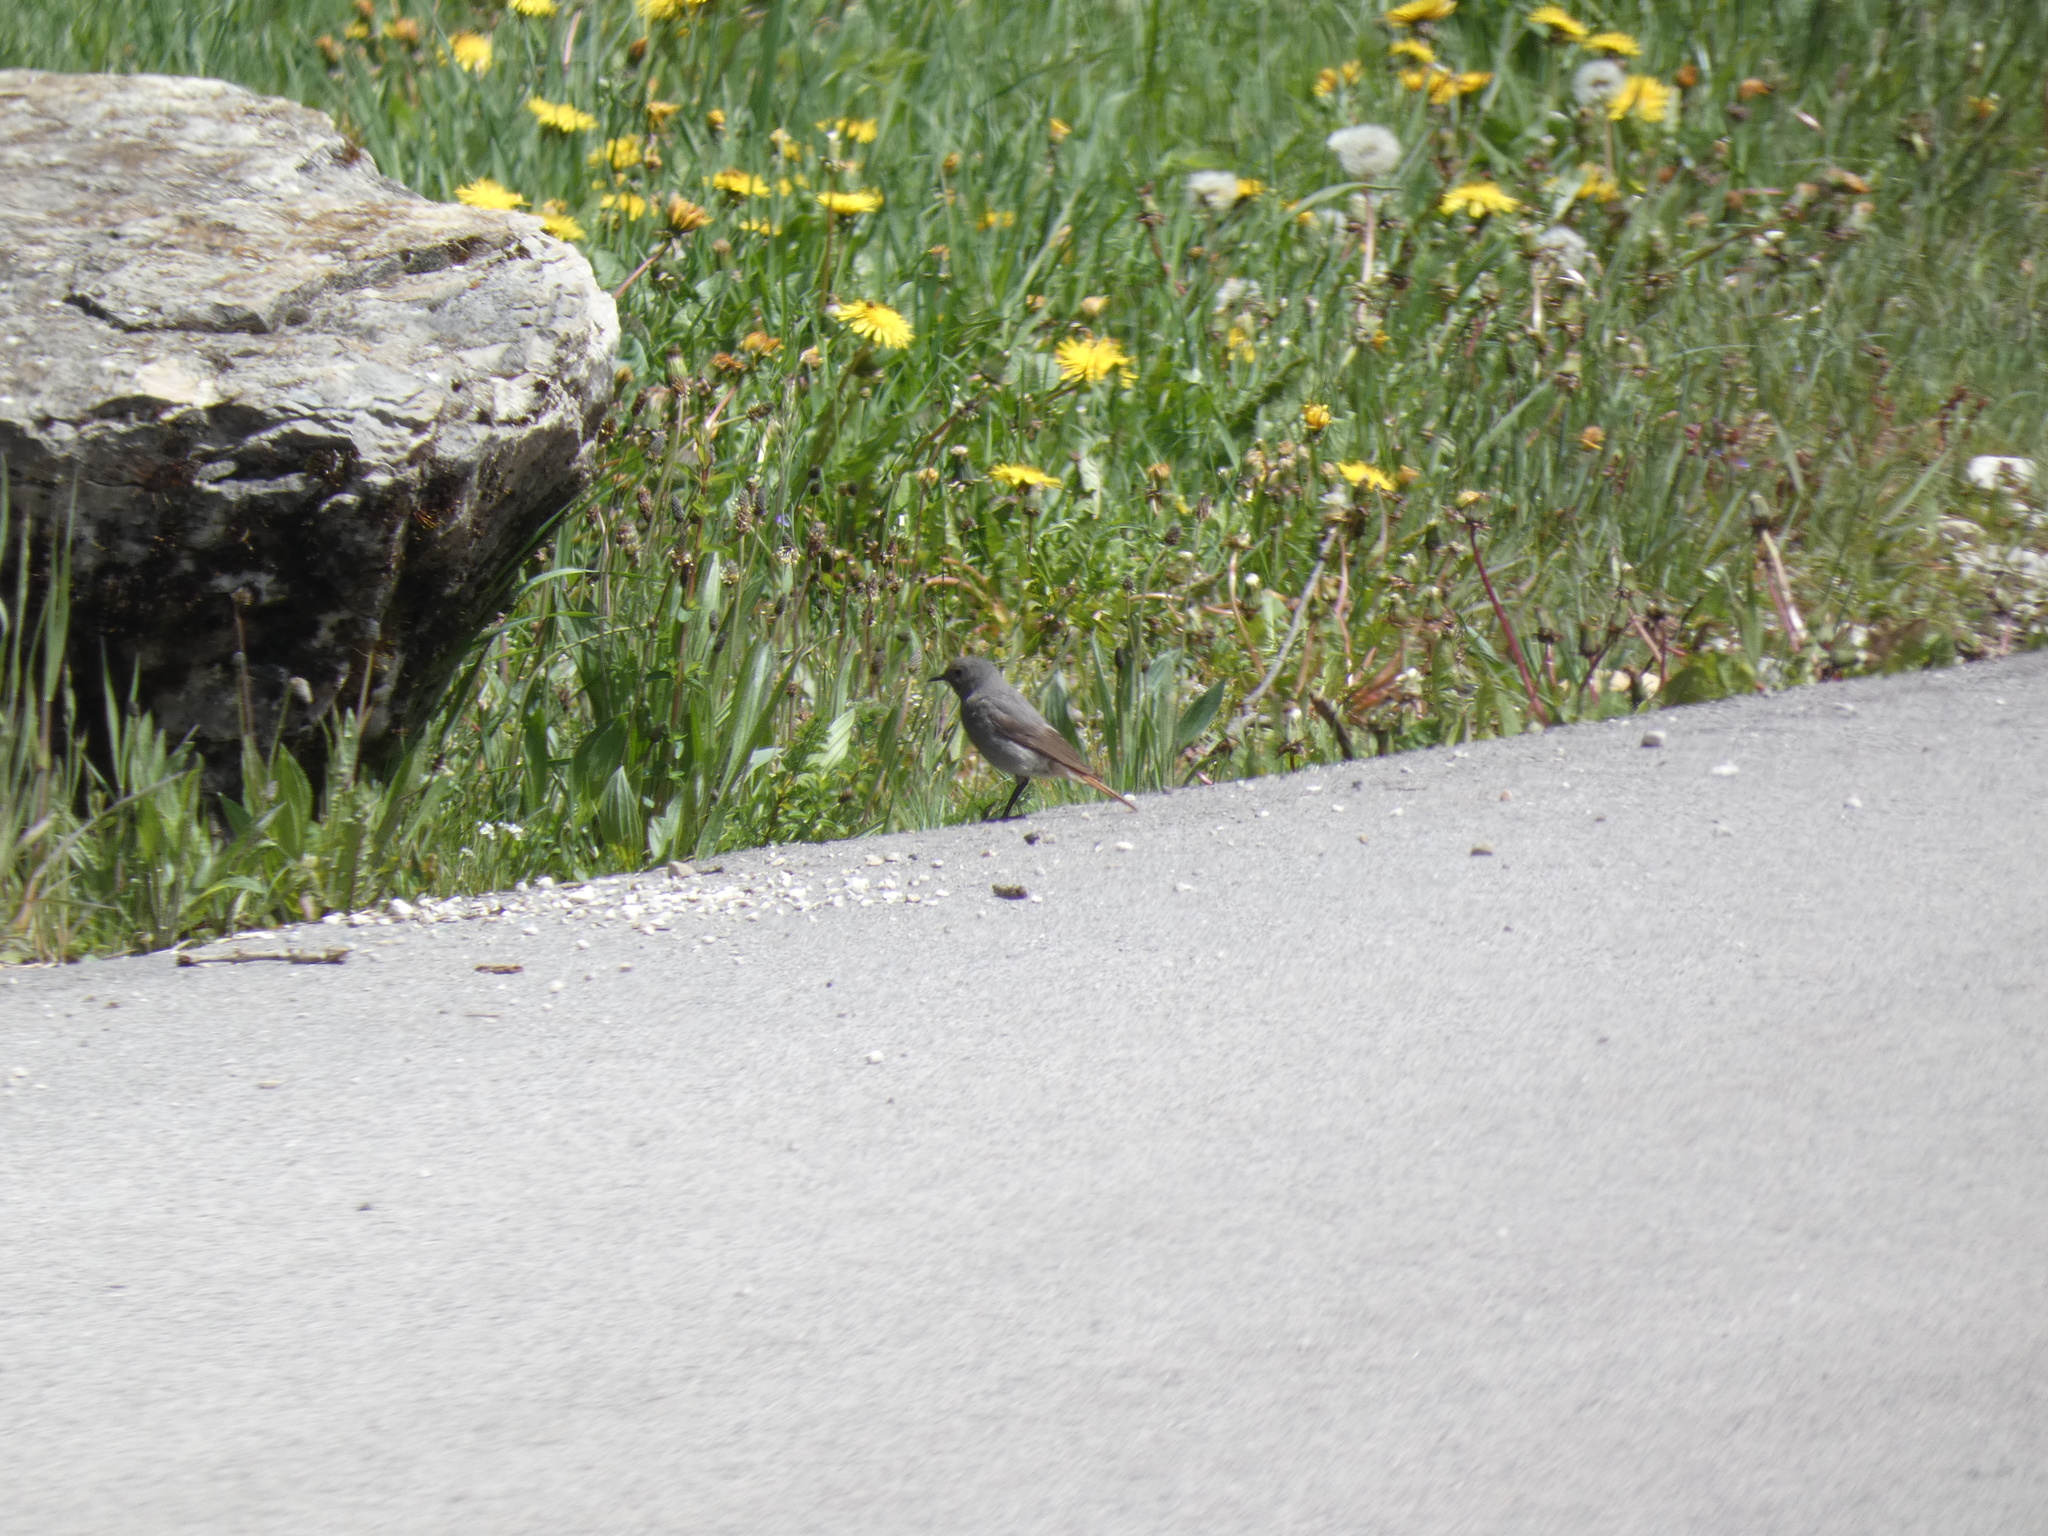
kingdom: Animalia
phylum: Chordata
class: Aves
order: Passeriformes
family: Muscicapidae
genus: Phoenicurus
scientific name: Phoenicurus ochruros
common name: Black redstart
